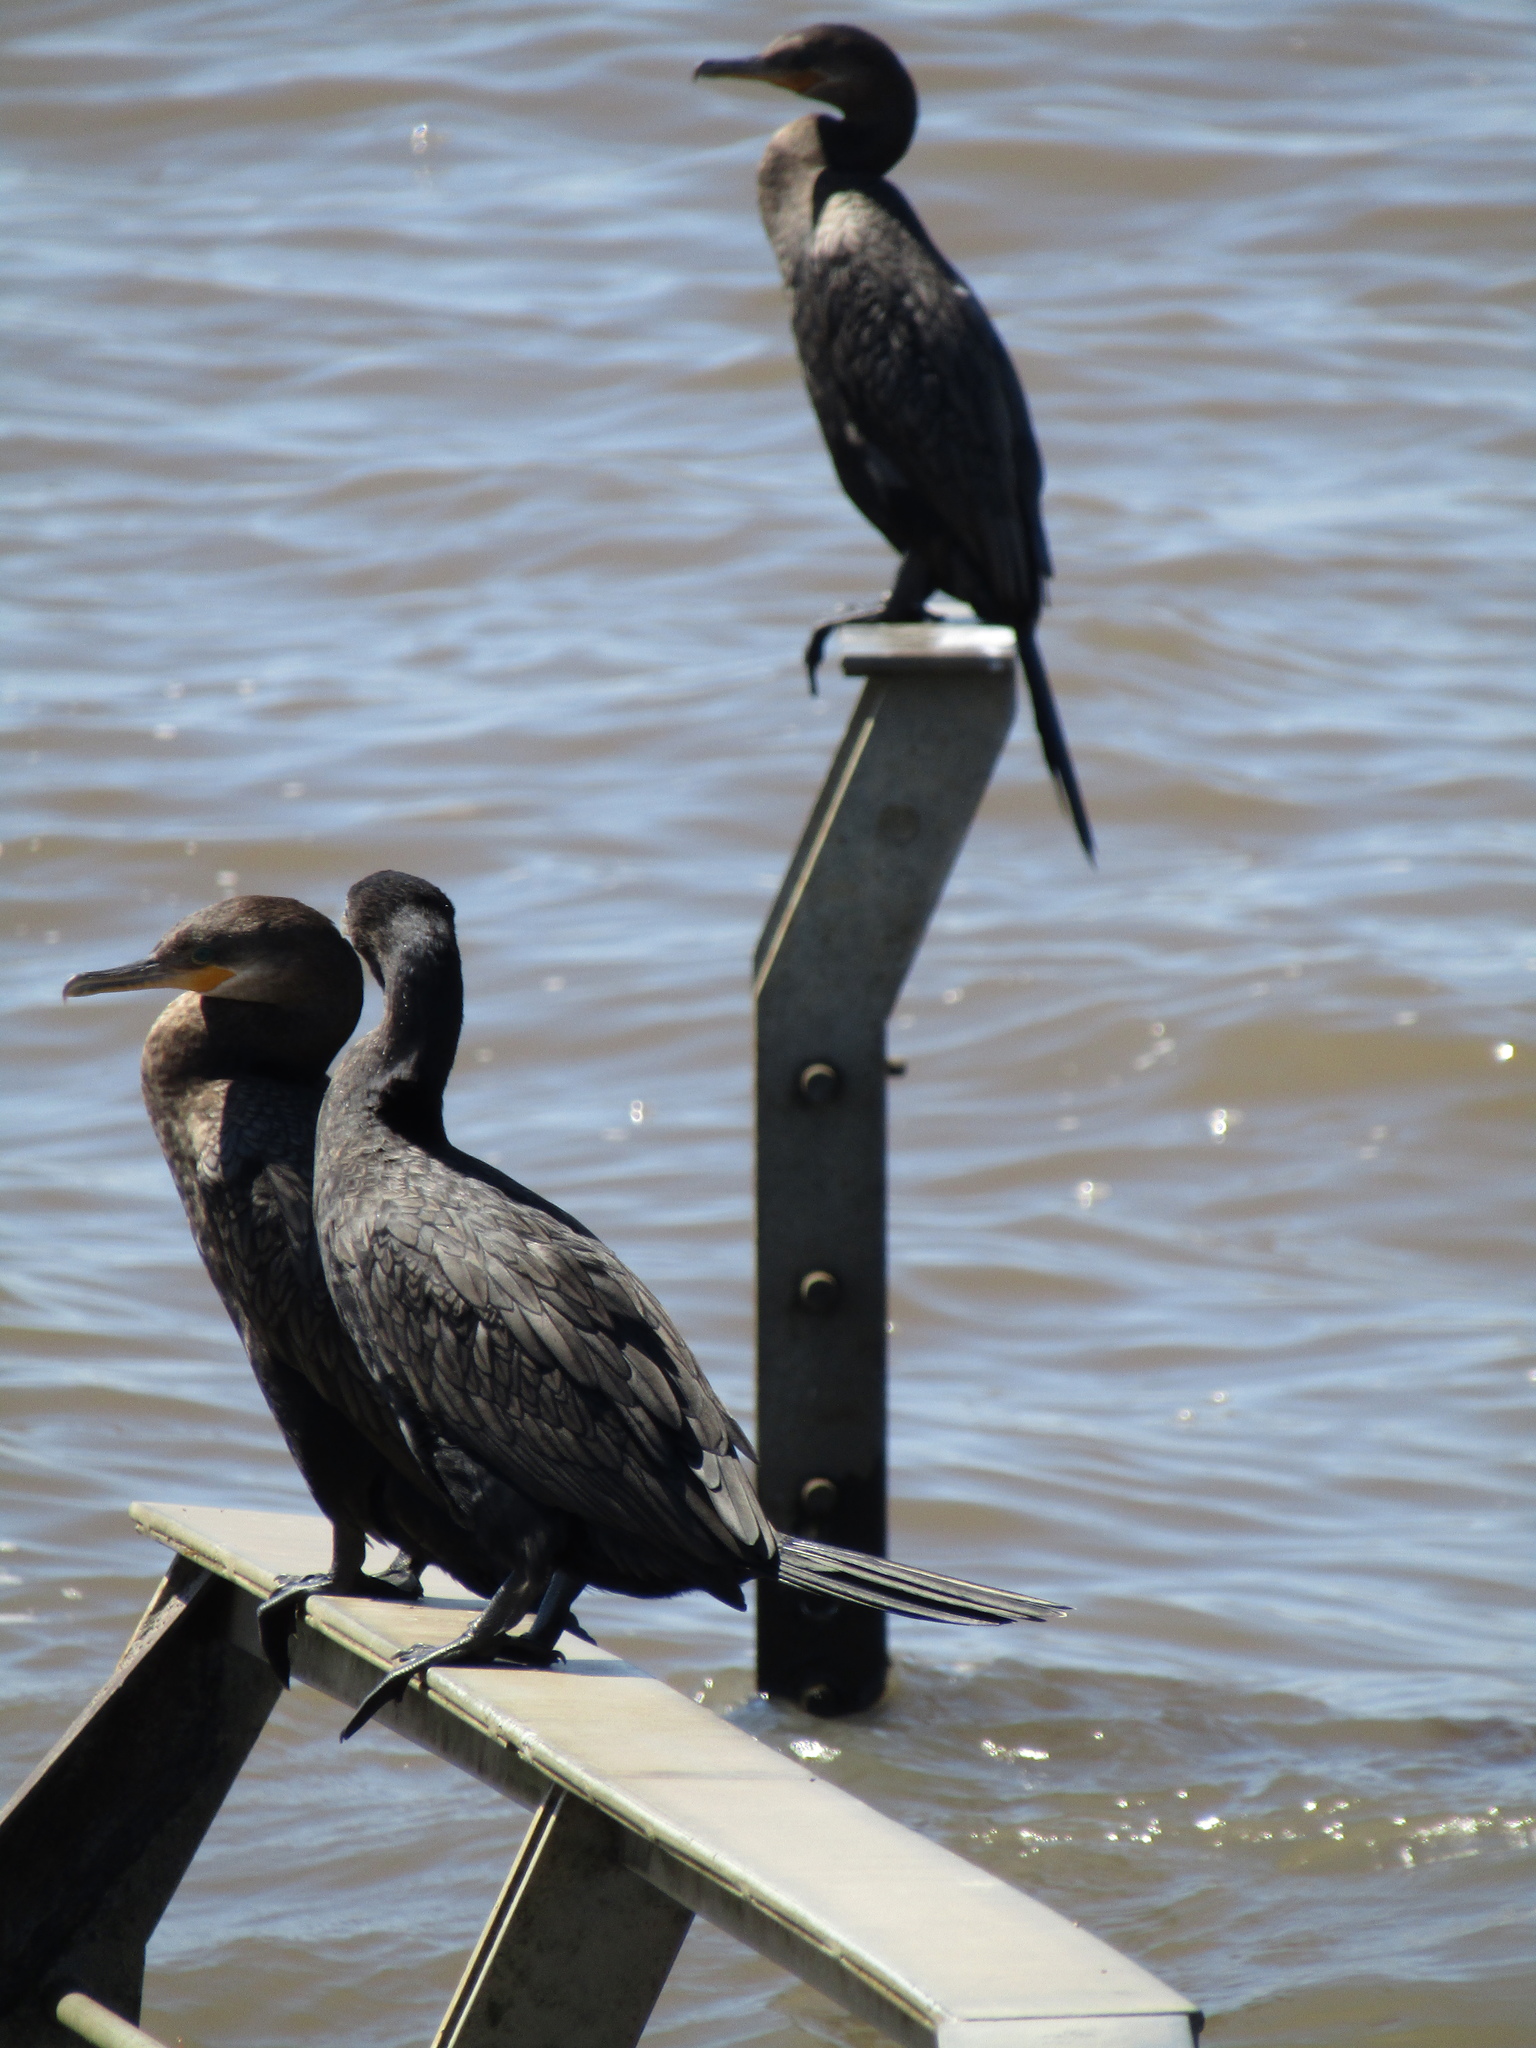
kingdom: Animalia
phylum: Chordata
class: Aves
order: Suliformes
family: Phalacrocoracidae
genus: Phalacrocorax
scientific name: Phalacrocorax brasilianus
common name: Neotropic cormorant
